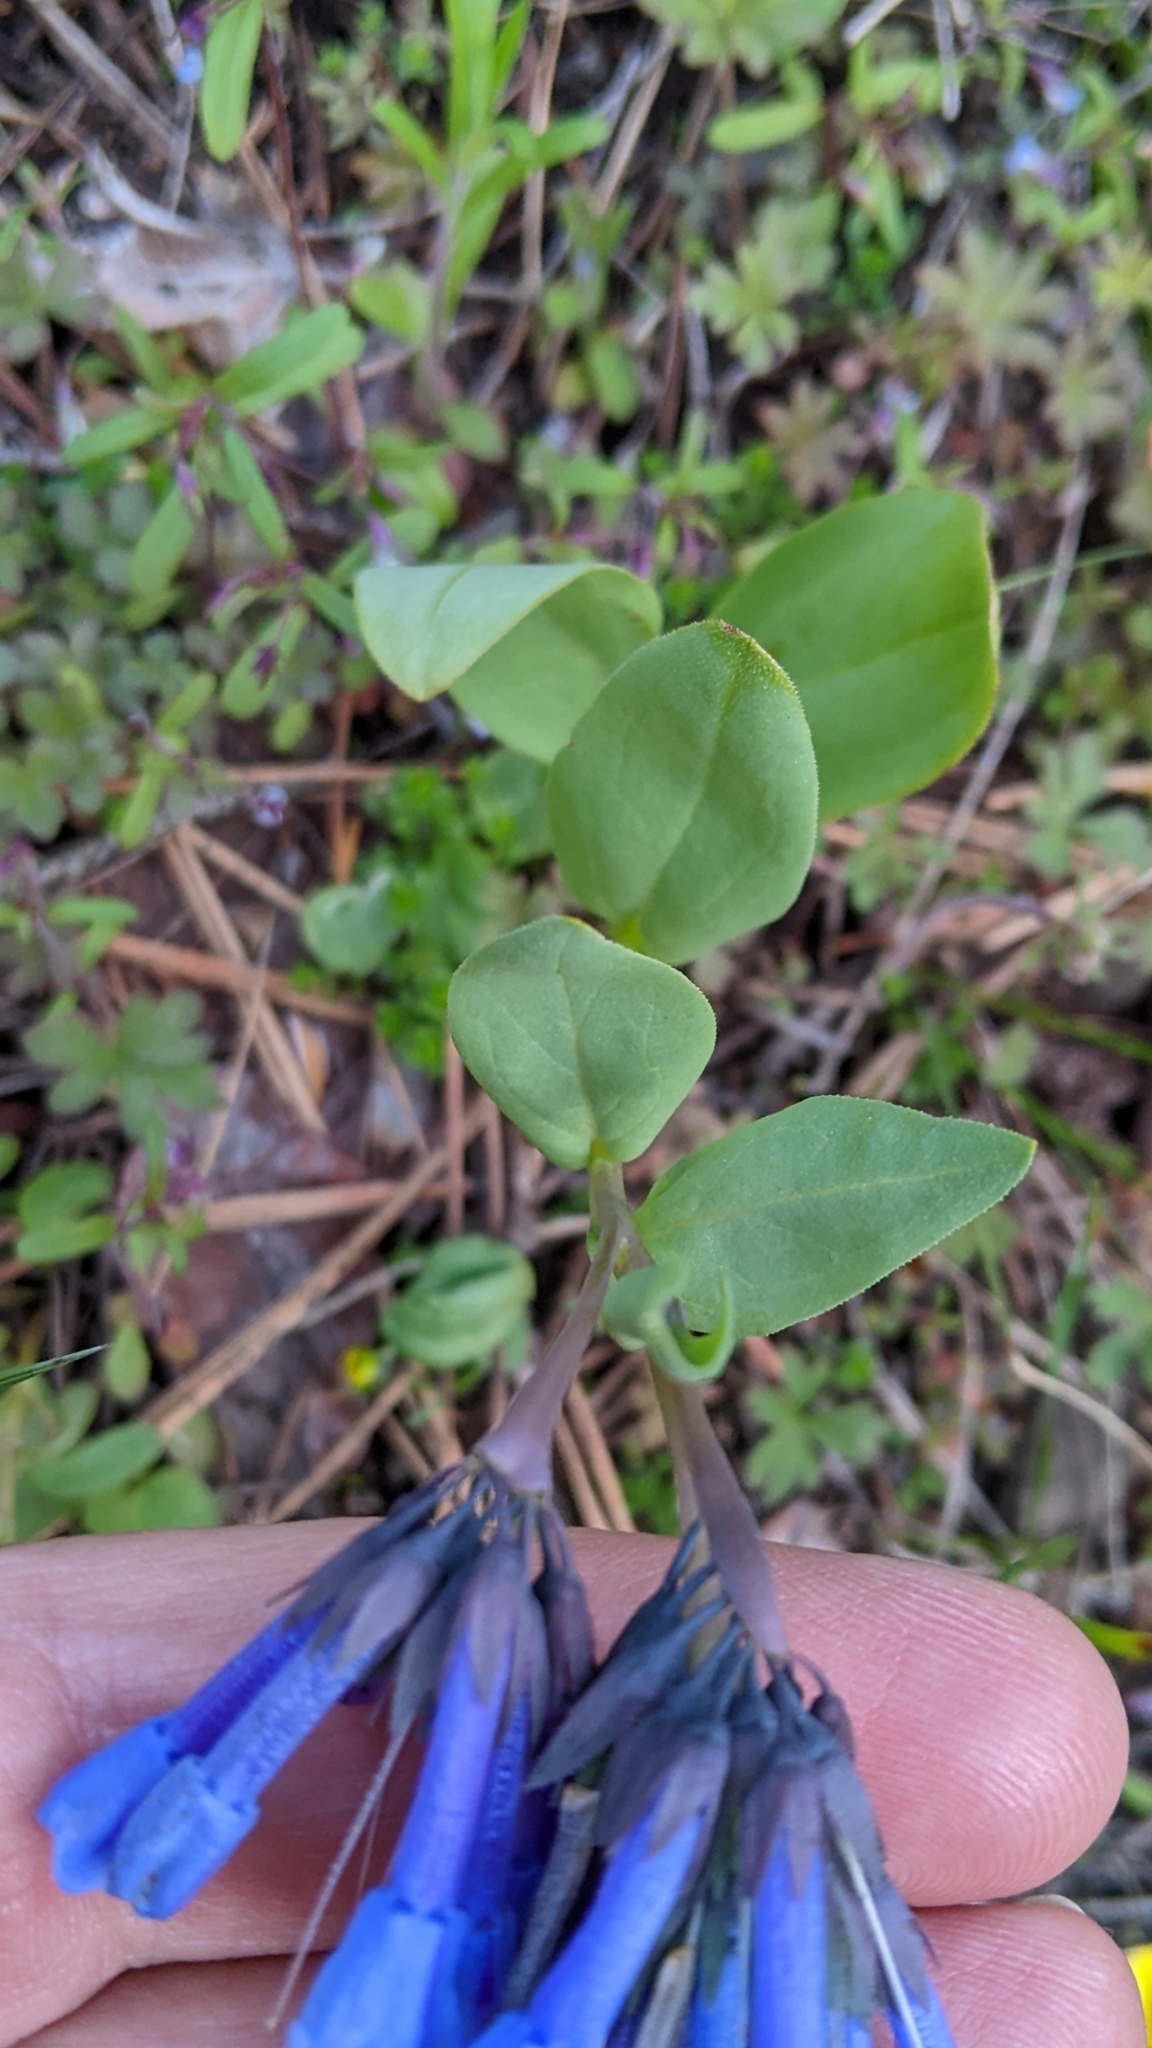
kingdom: Plantae
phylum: Tracheophyta
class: Magnoliopsida
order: Boraginales
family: Boraginaceae
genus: Mertensia
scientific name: Mertensia longiflora
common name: Large-flowered bluebells
